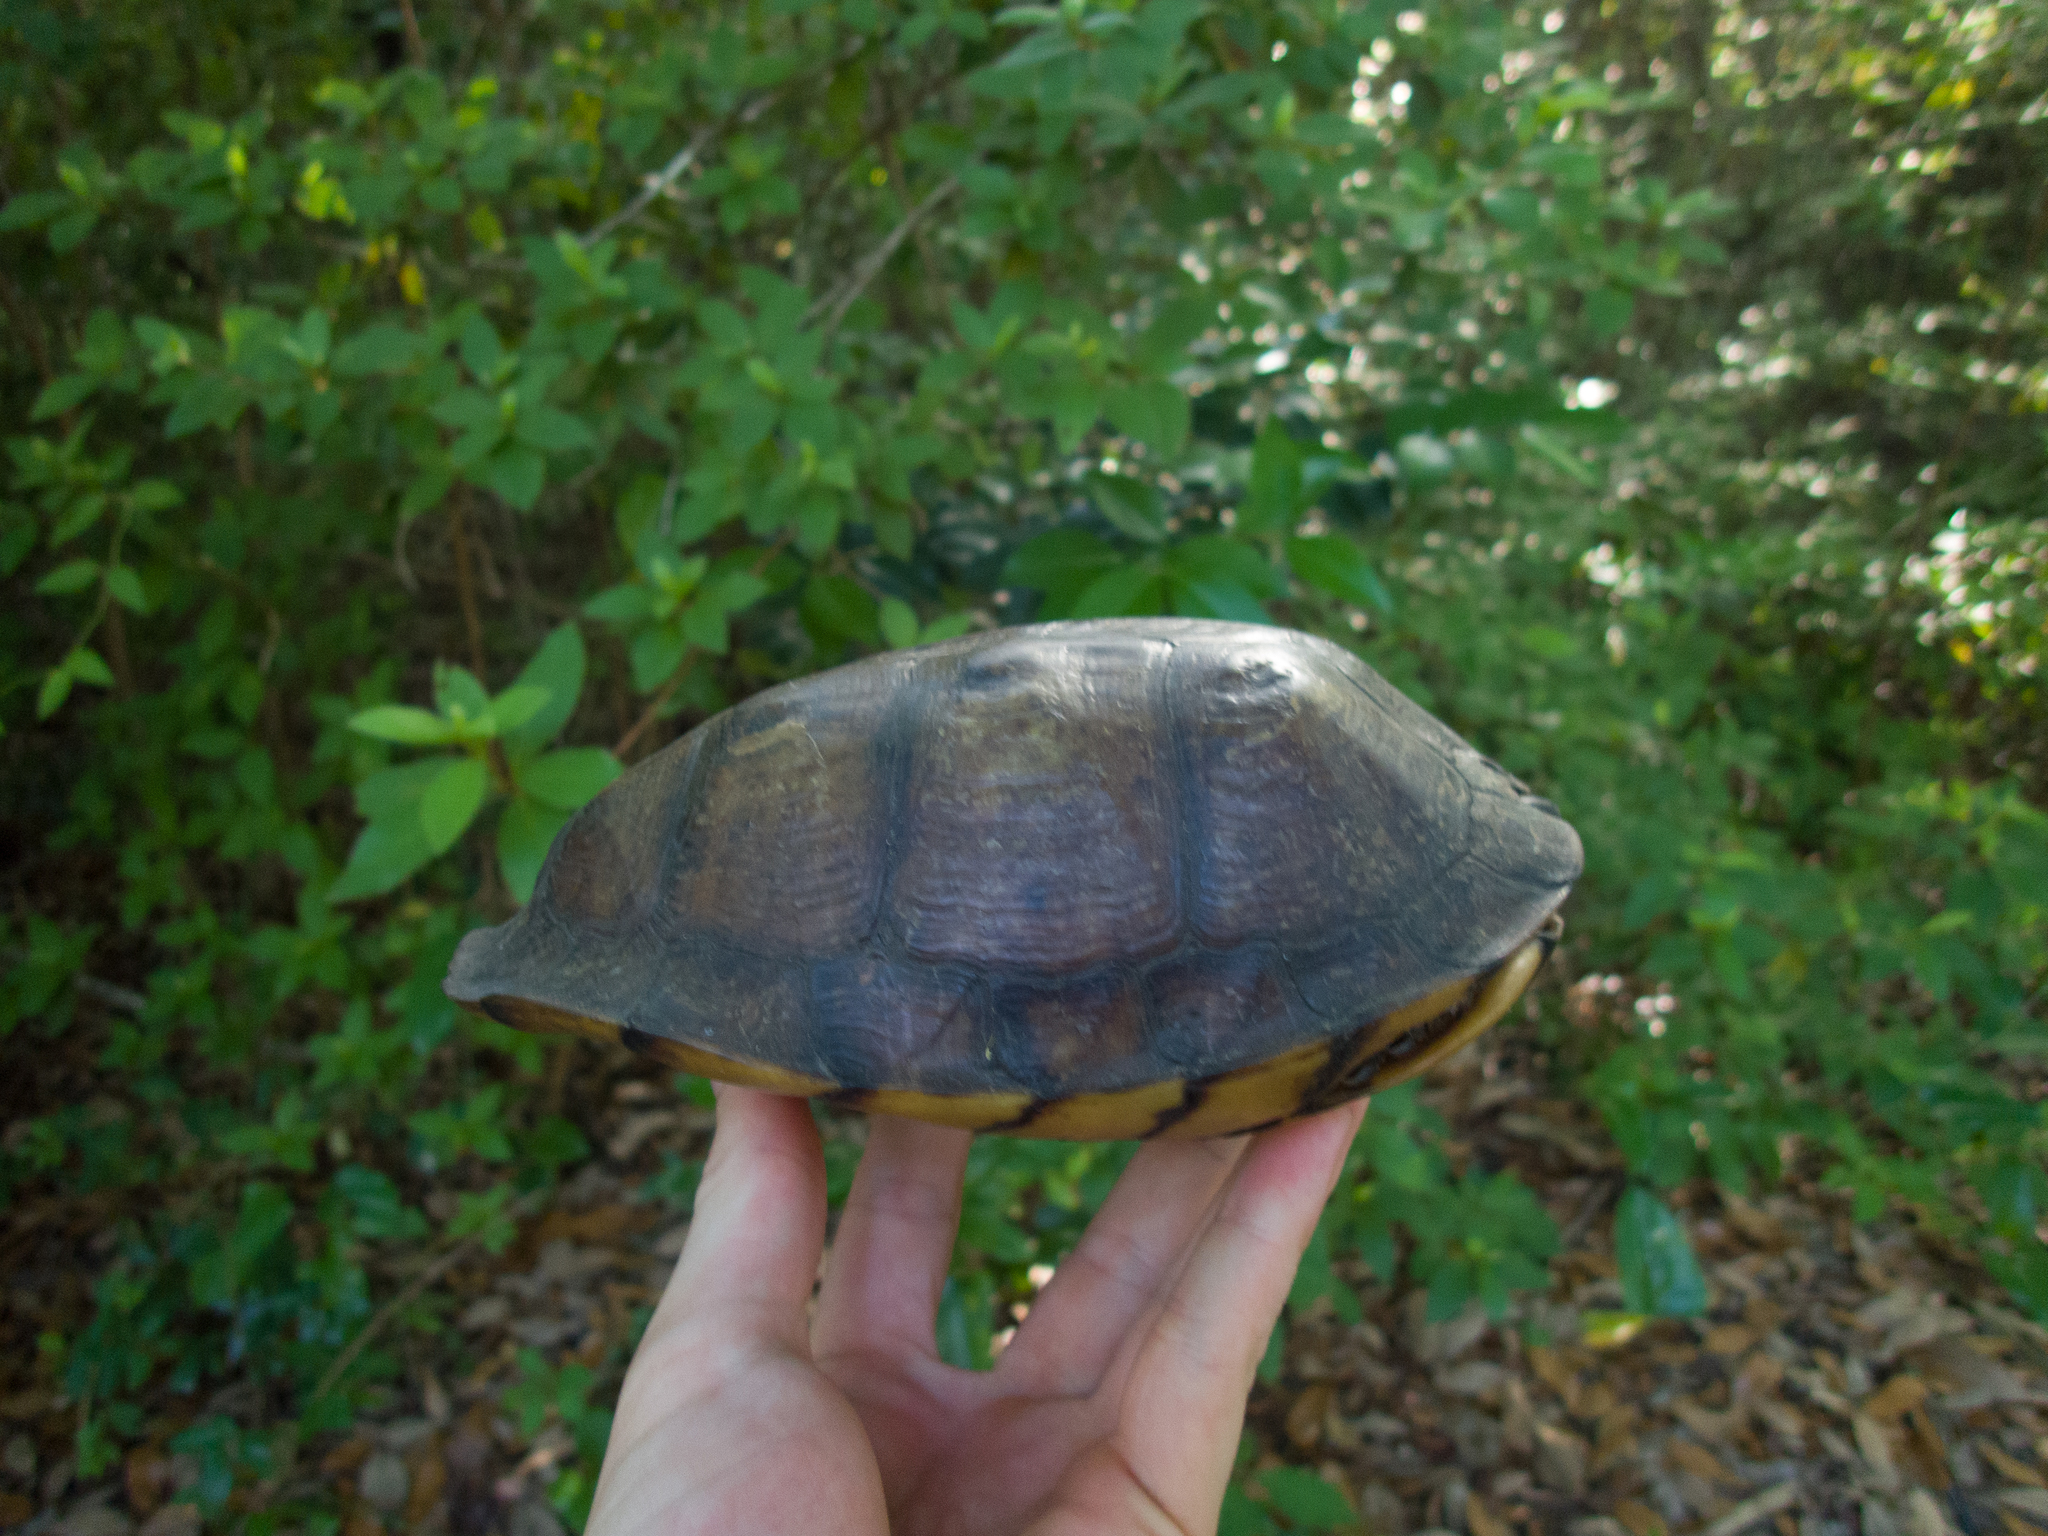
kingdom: Animalia
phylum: Chordata
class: Testudines
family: Emydidae
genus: Terrapene
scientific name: Terrapene carolina
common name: Common box turtle
